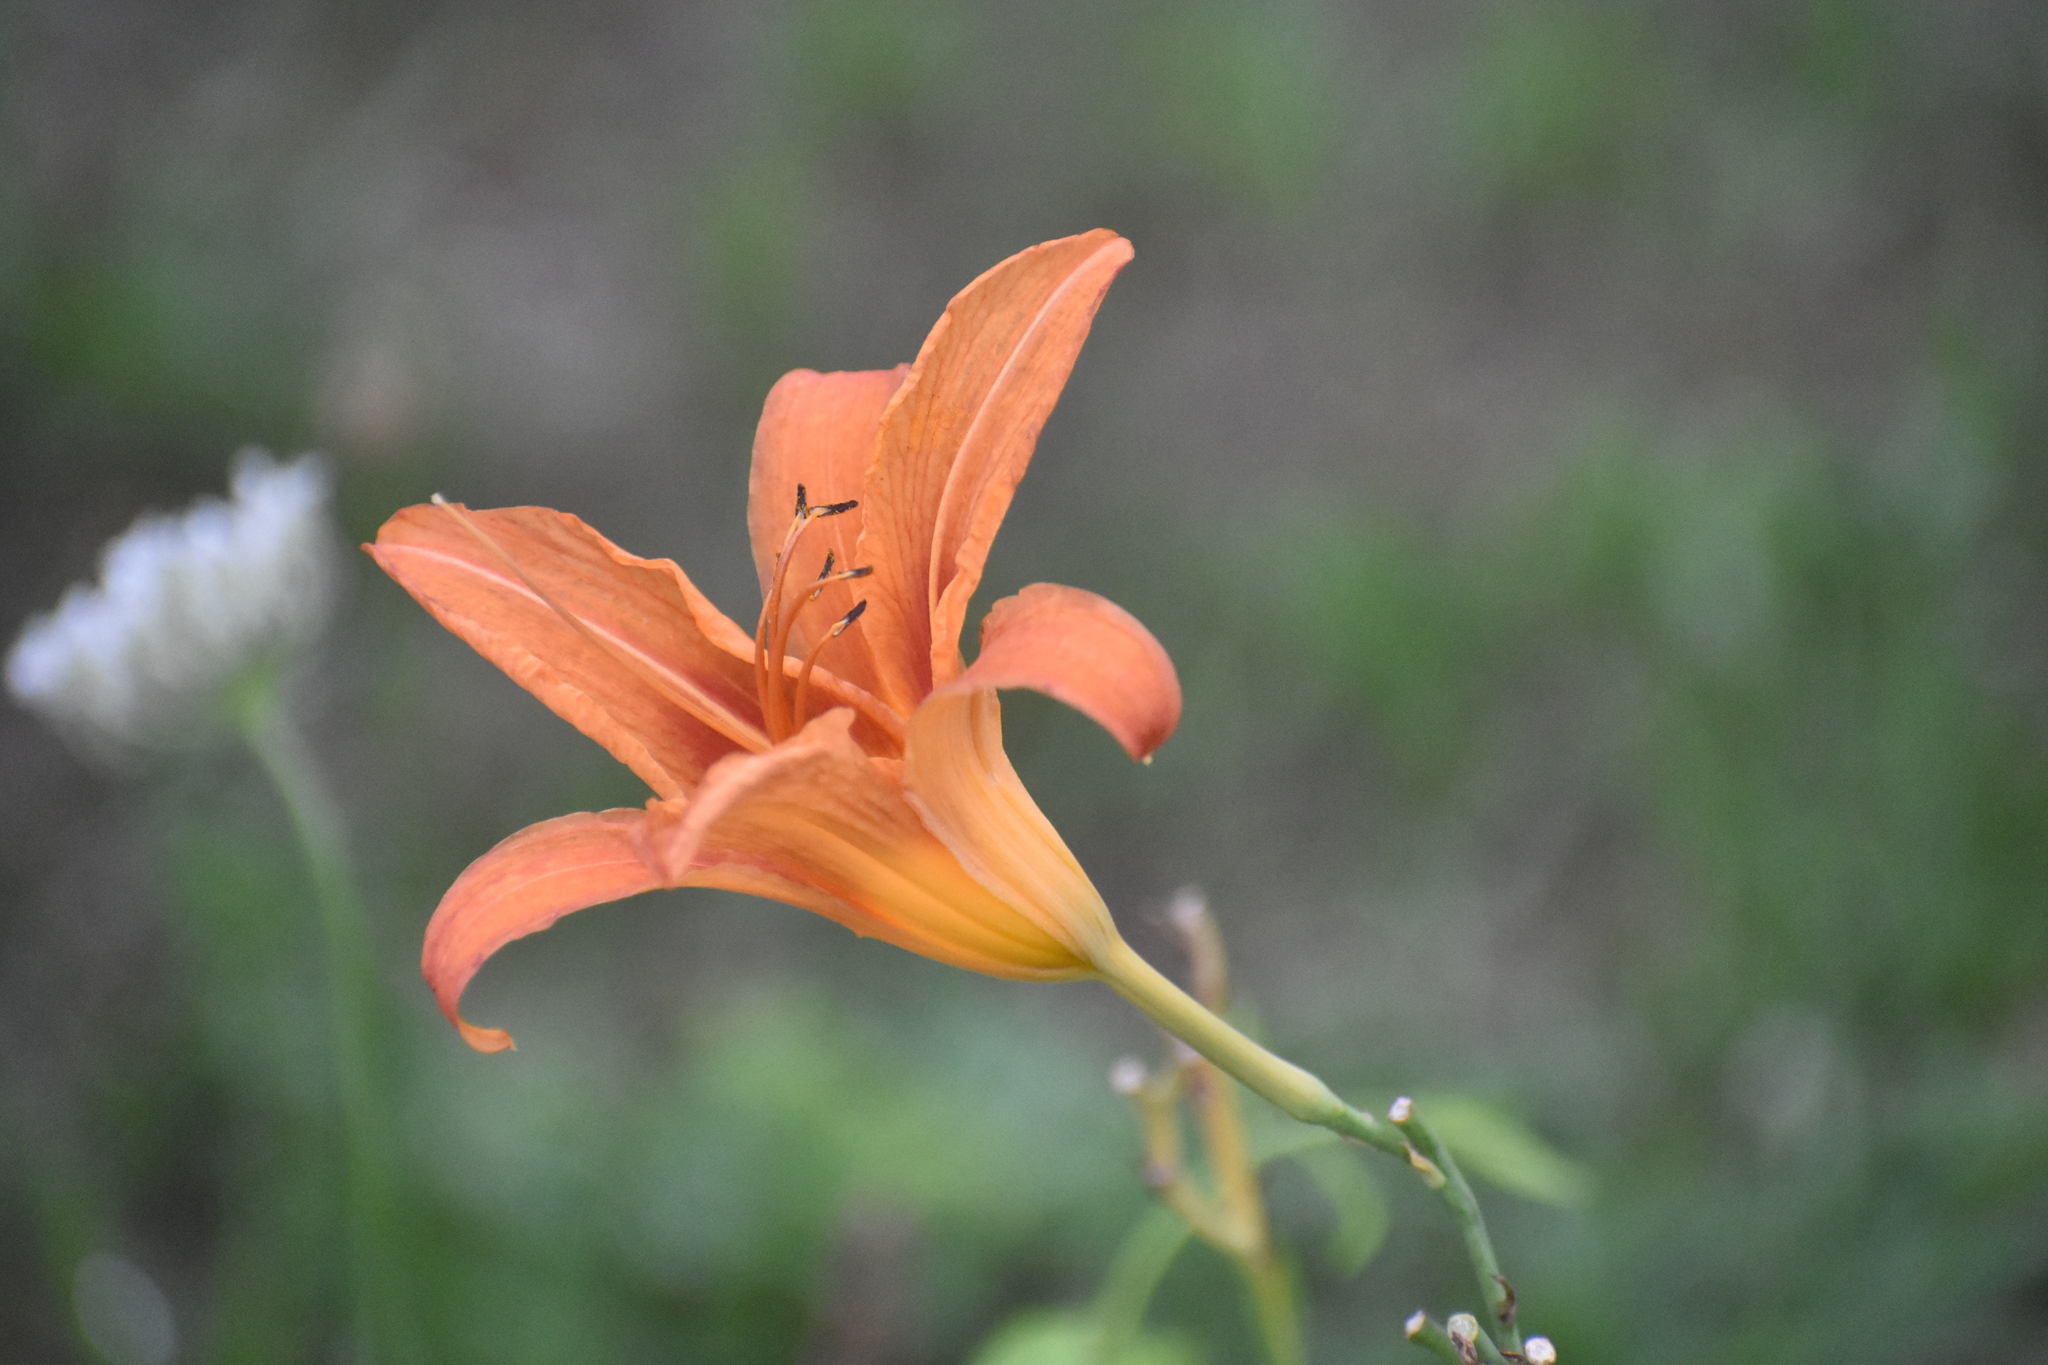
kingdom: Plantae
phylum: Tracheophyta
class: Liliopsida
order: Asparagales
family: Asphodelaceae
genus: Hemerocallis
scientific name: Hemerocallis fulva
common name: Orange day-lily
